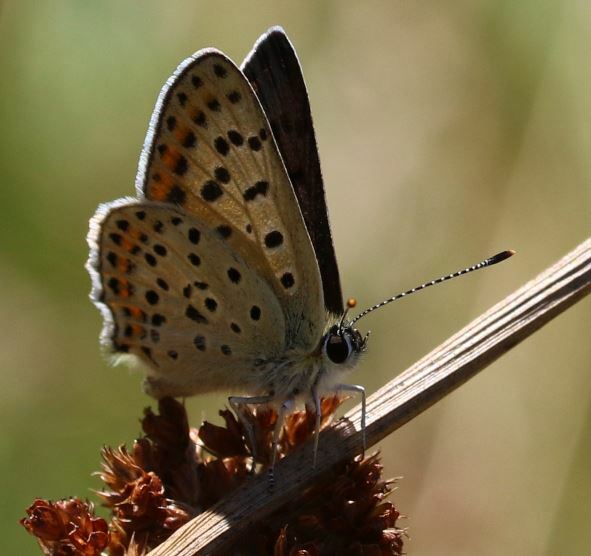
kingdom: Animalia
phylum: Arthropoda
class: Insecta
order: Lepidoptera
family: Lycaenidae
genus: Loweia
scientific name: Loweia tityrus
